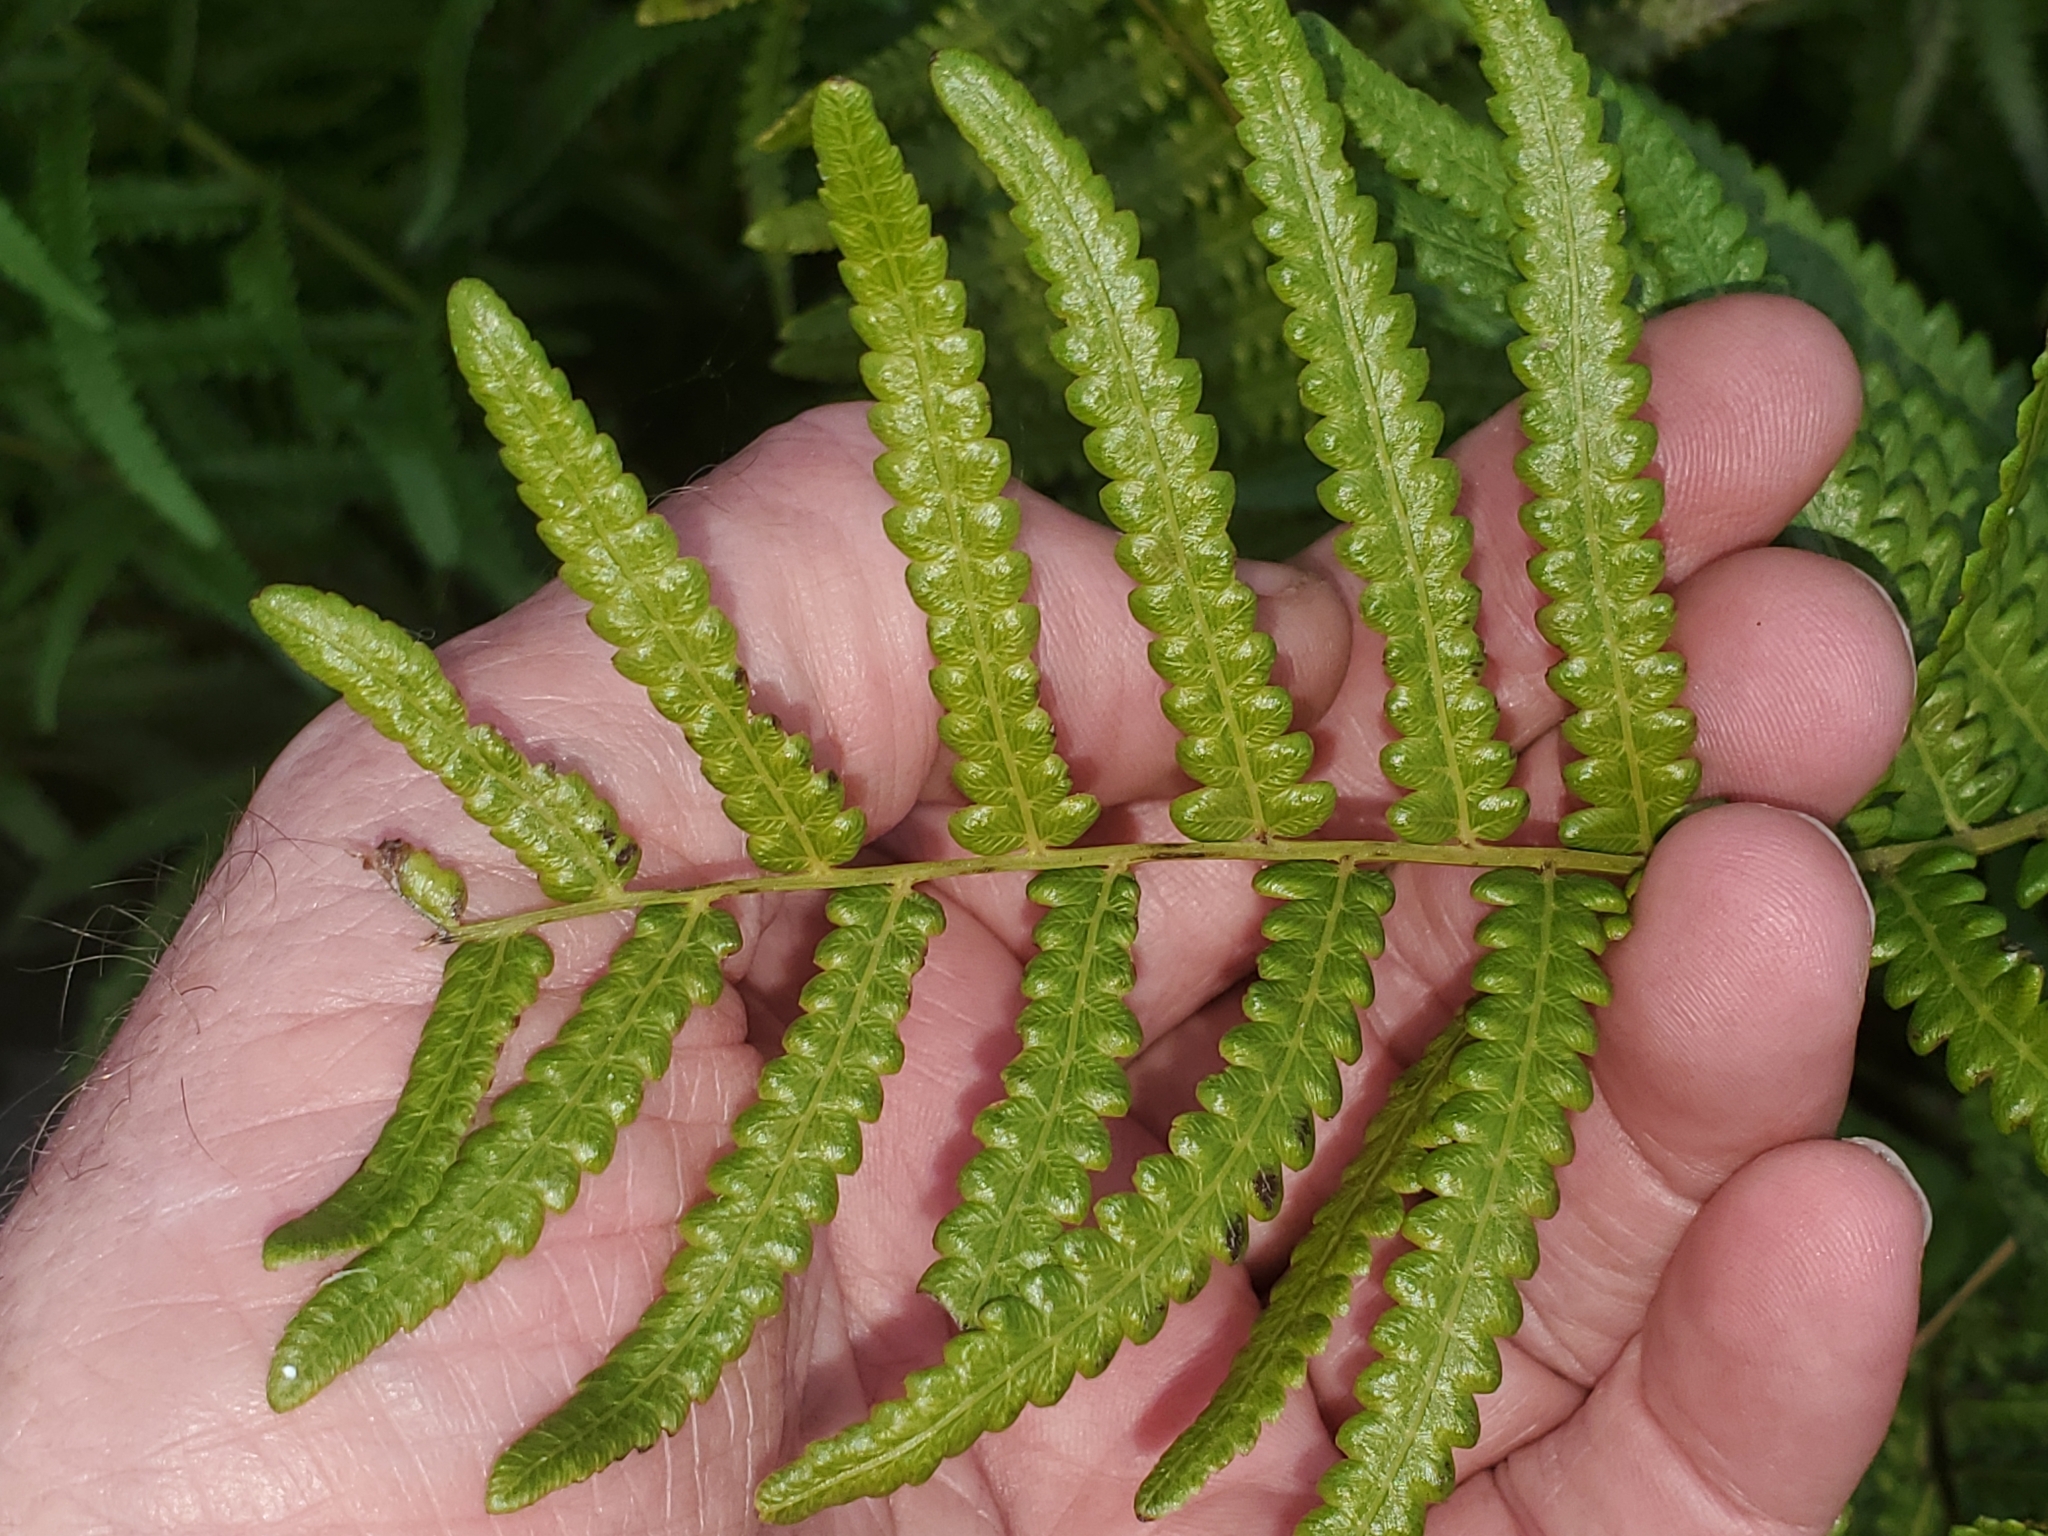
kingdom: Plantae
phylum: Tracheophyta
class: Polypodiopsida
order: Polypodiales
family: Thelypteridaceae
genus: Cyclosorus
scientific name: Cyclosorus interruptus
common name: Neke fern
